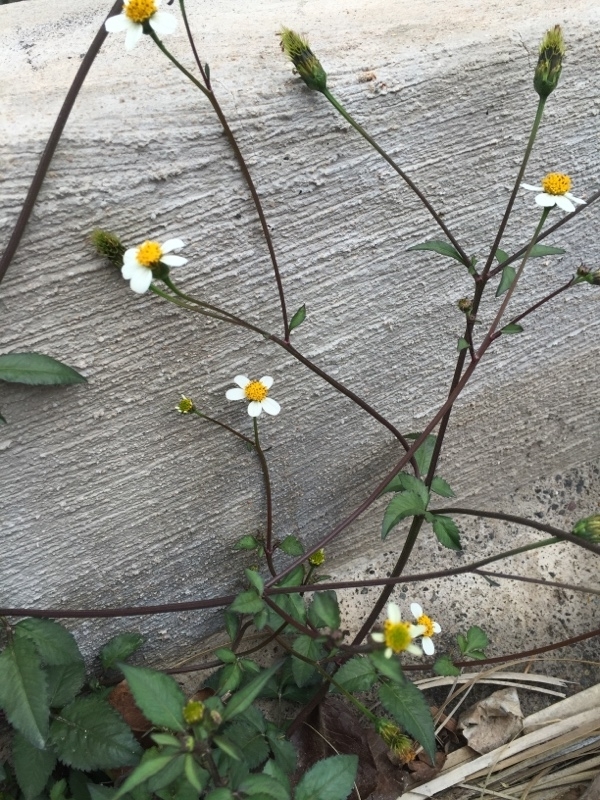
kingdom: Plantae
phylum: Tracheophyta
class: Magnoliopsida
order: Asterales
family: Asteraceae
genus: Bidens
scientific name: Bidens pilosa
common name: Black-jack
